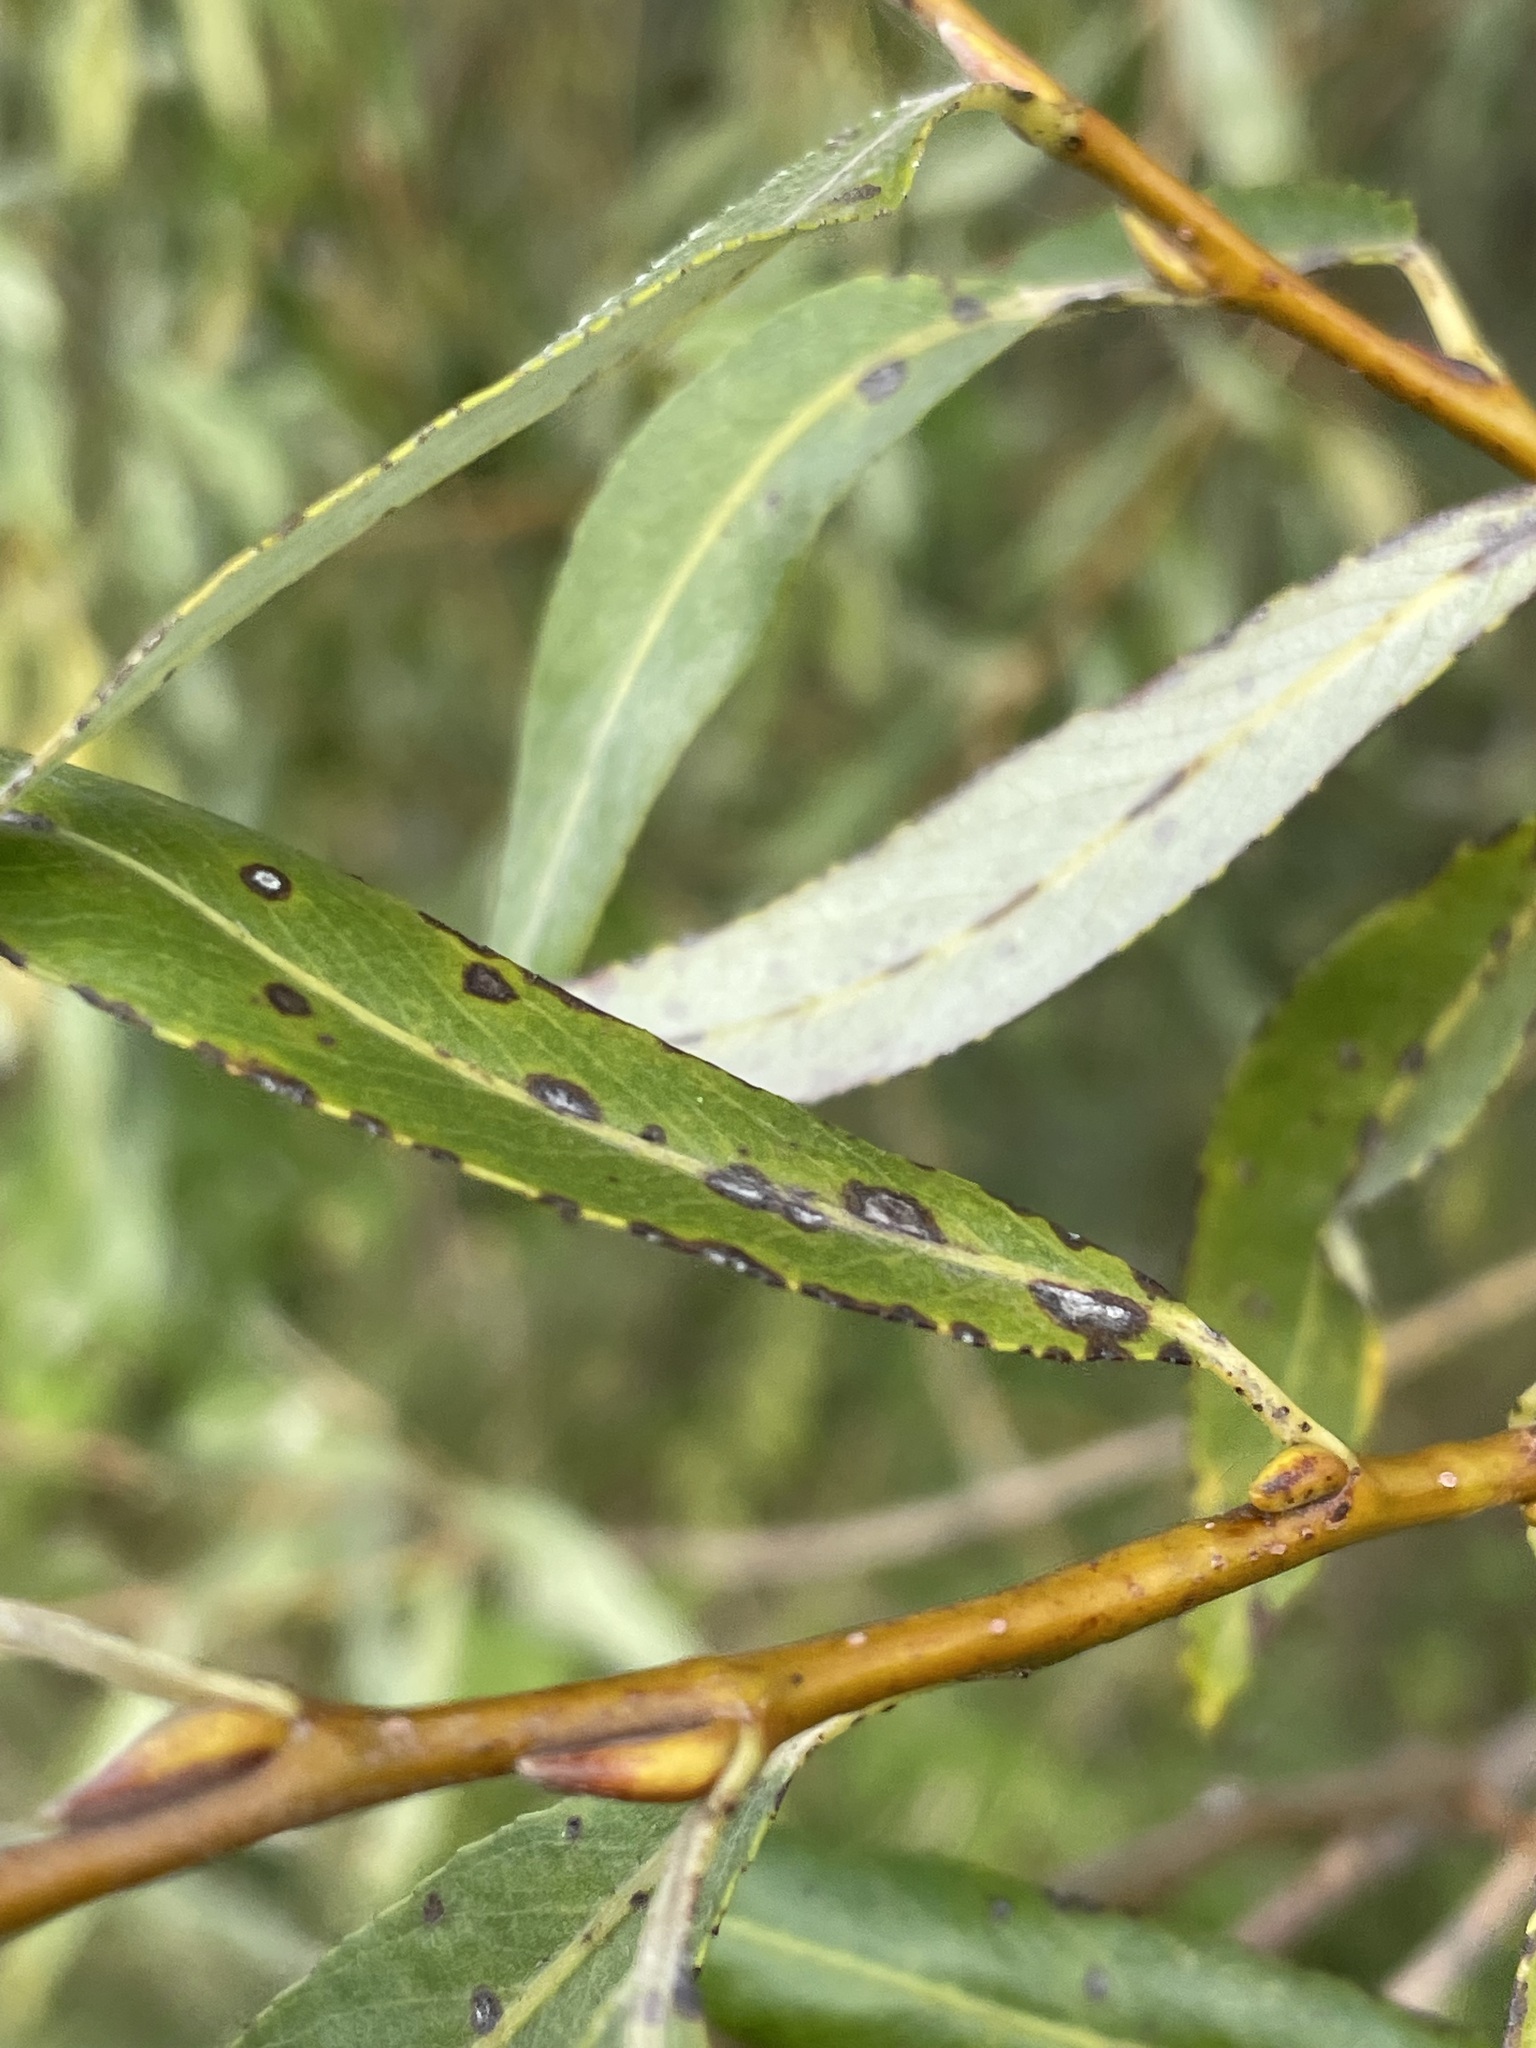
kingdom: Plantae
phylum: Tracheophyta
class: Magnoliopsida
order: Malpighiales
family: Salicaceae
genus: Salix
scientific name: Salix triandra
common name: Almond willow
